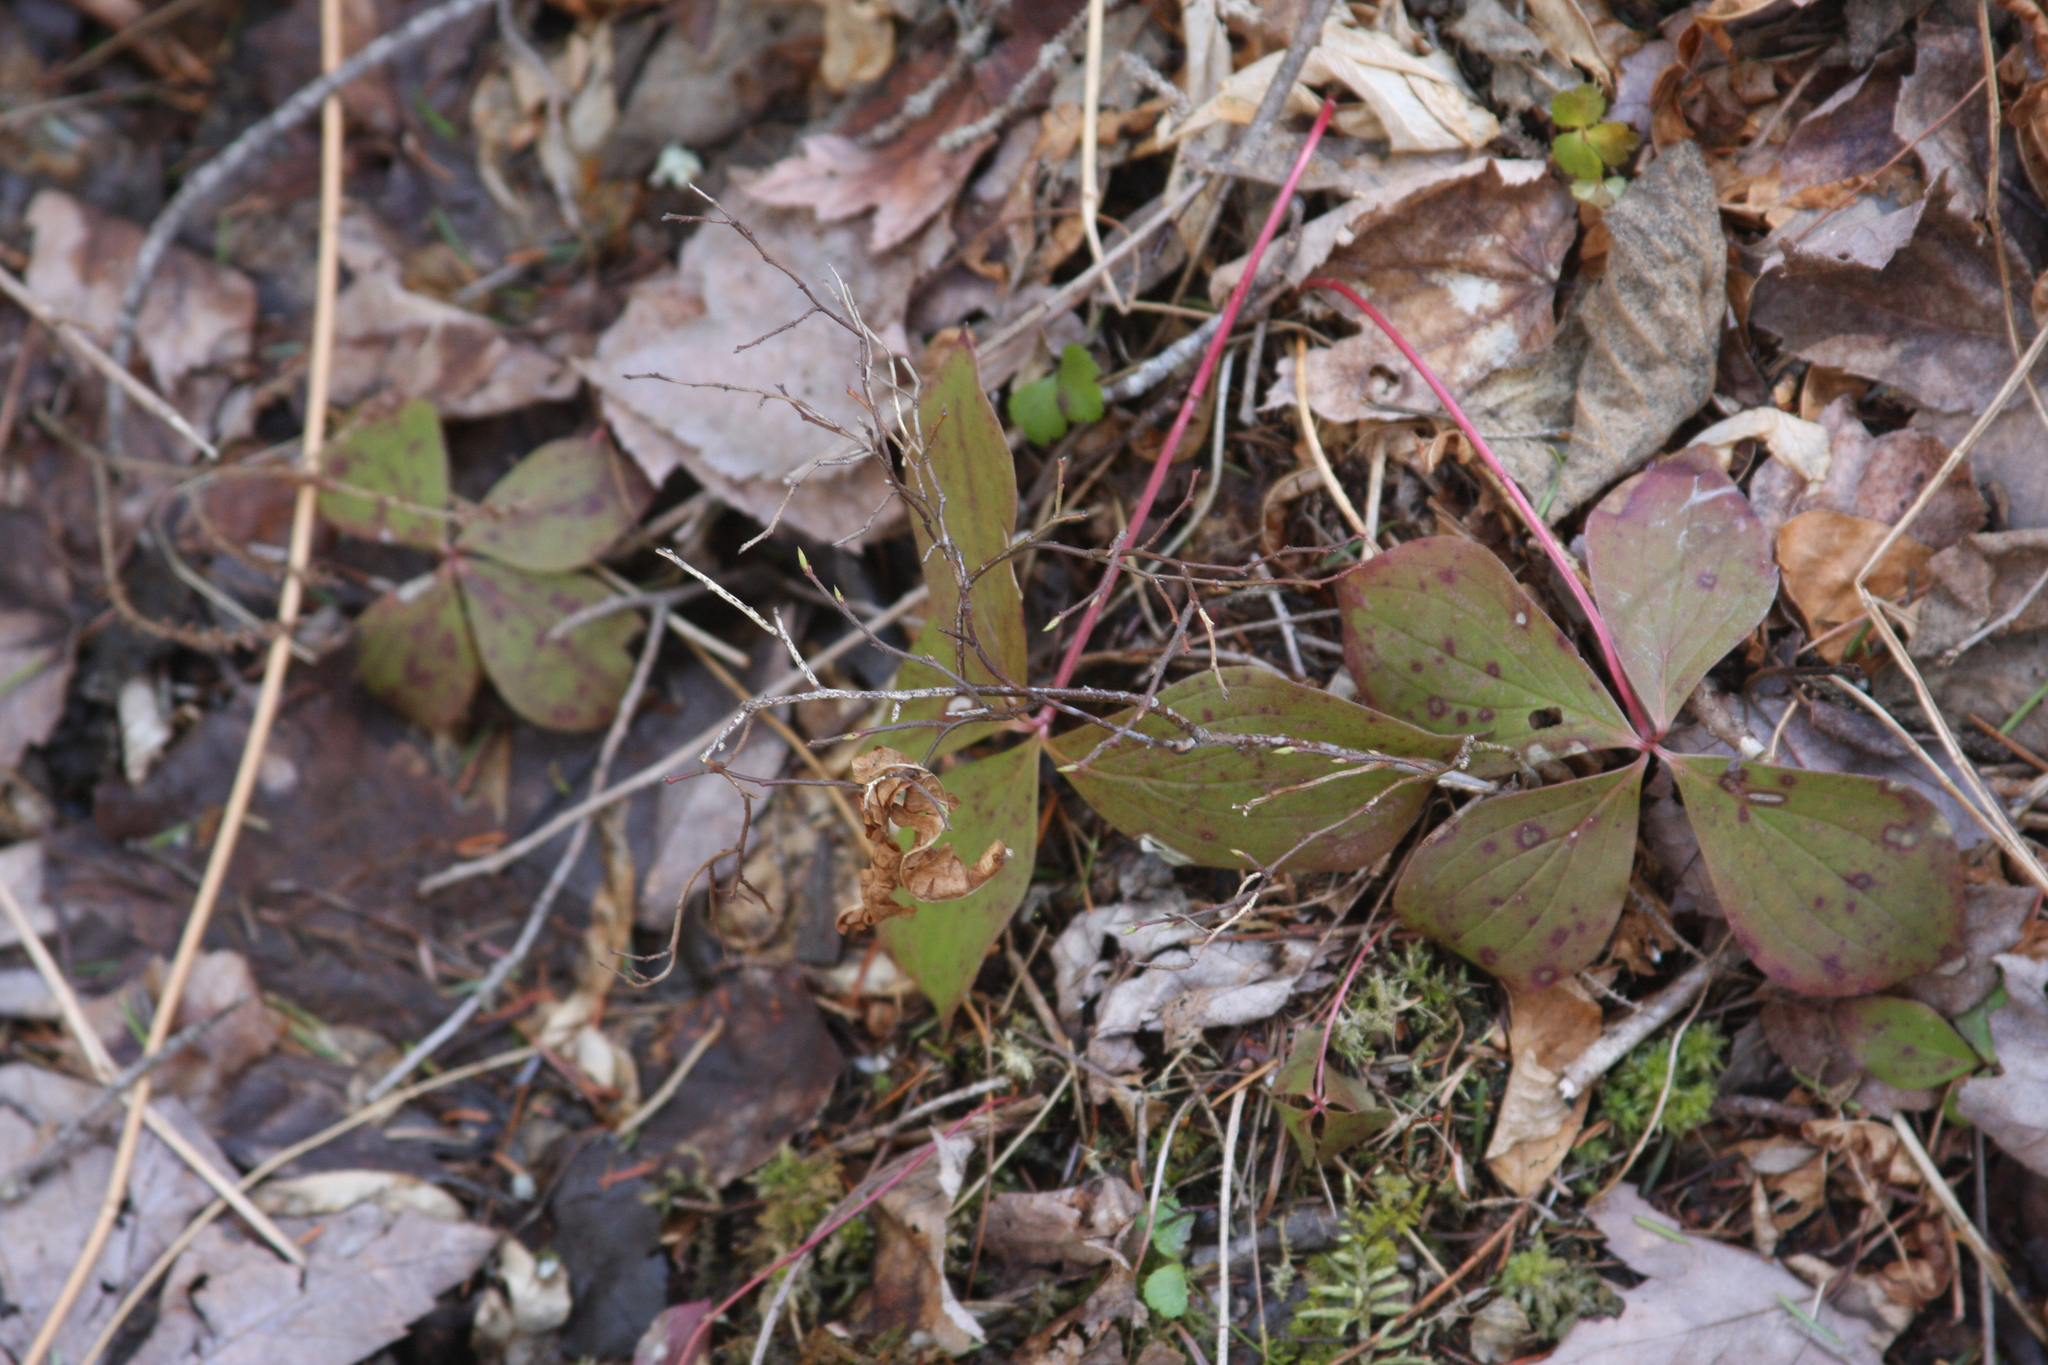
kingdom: Plantae
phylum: Tracheophyta
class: Magnoliopsida
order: Cornales
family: Cornaceae
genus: Cornus
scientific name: Cornus canadensis
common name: Creeping dogwood
